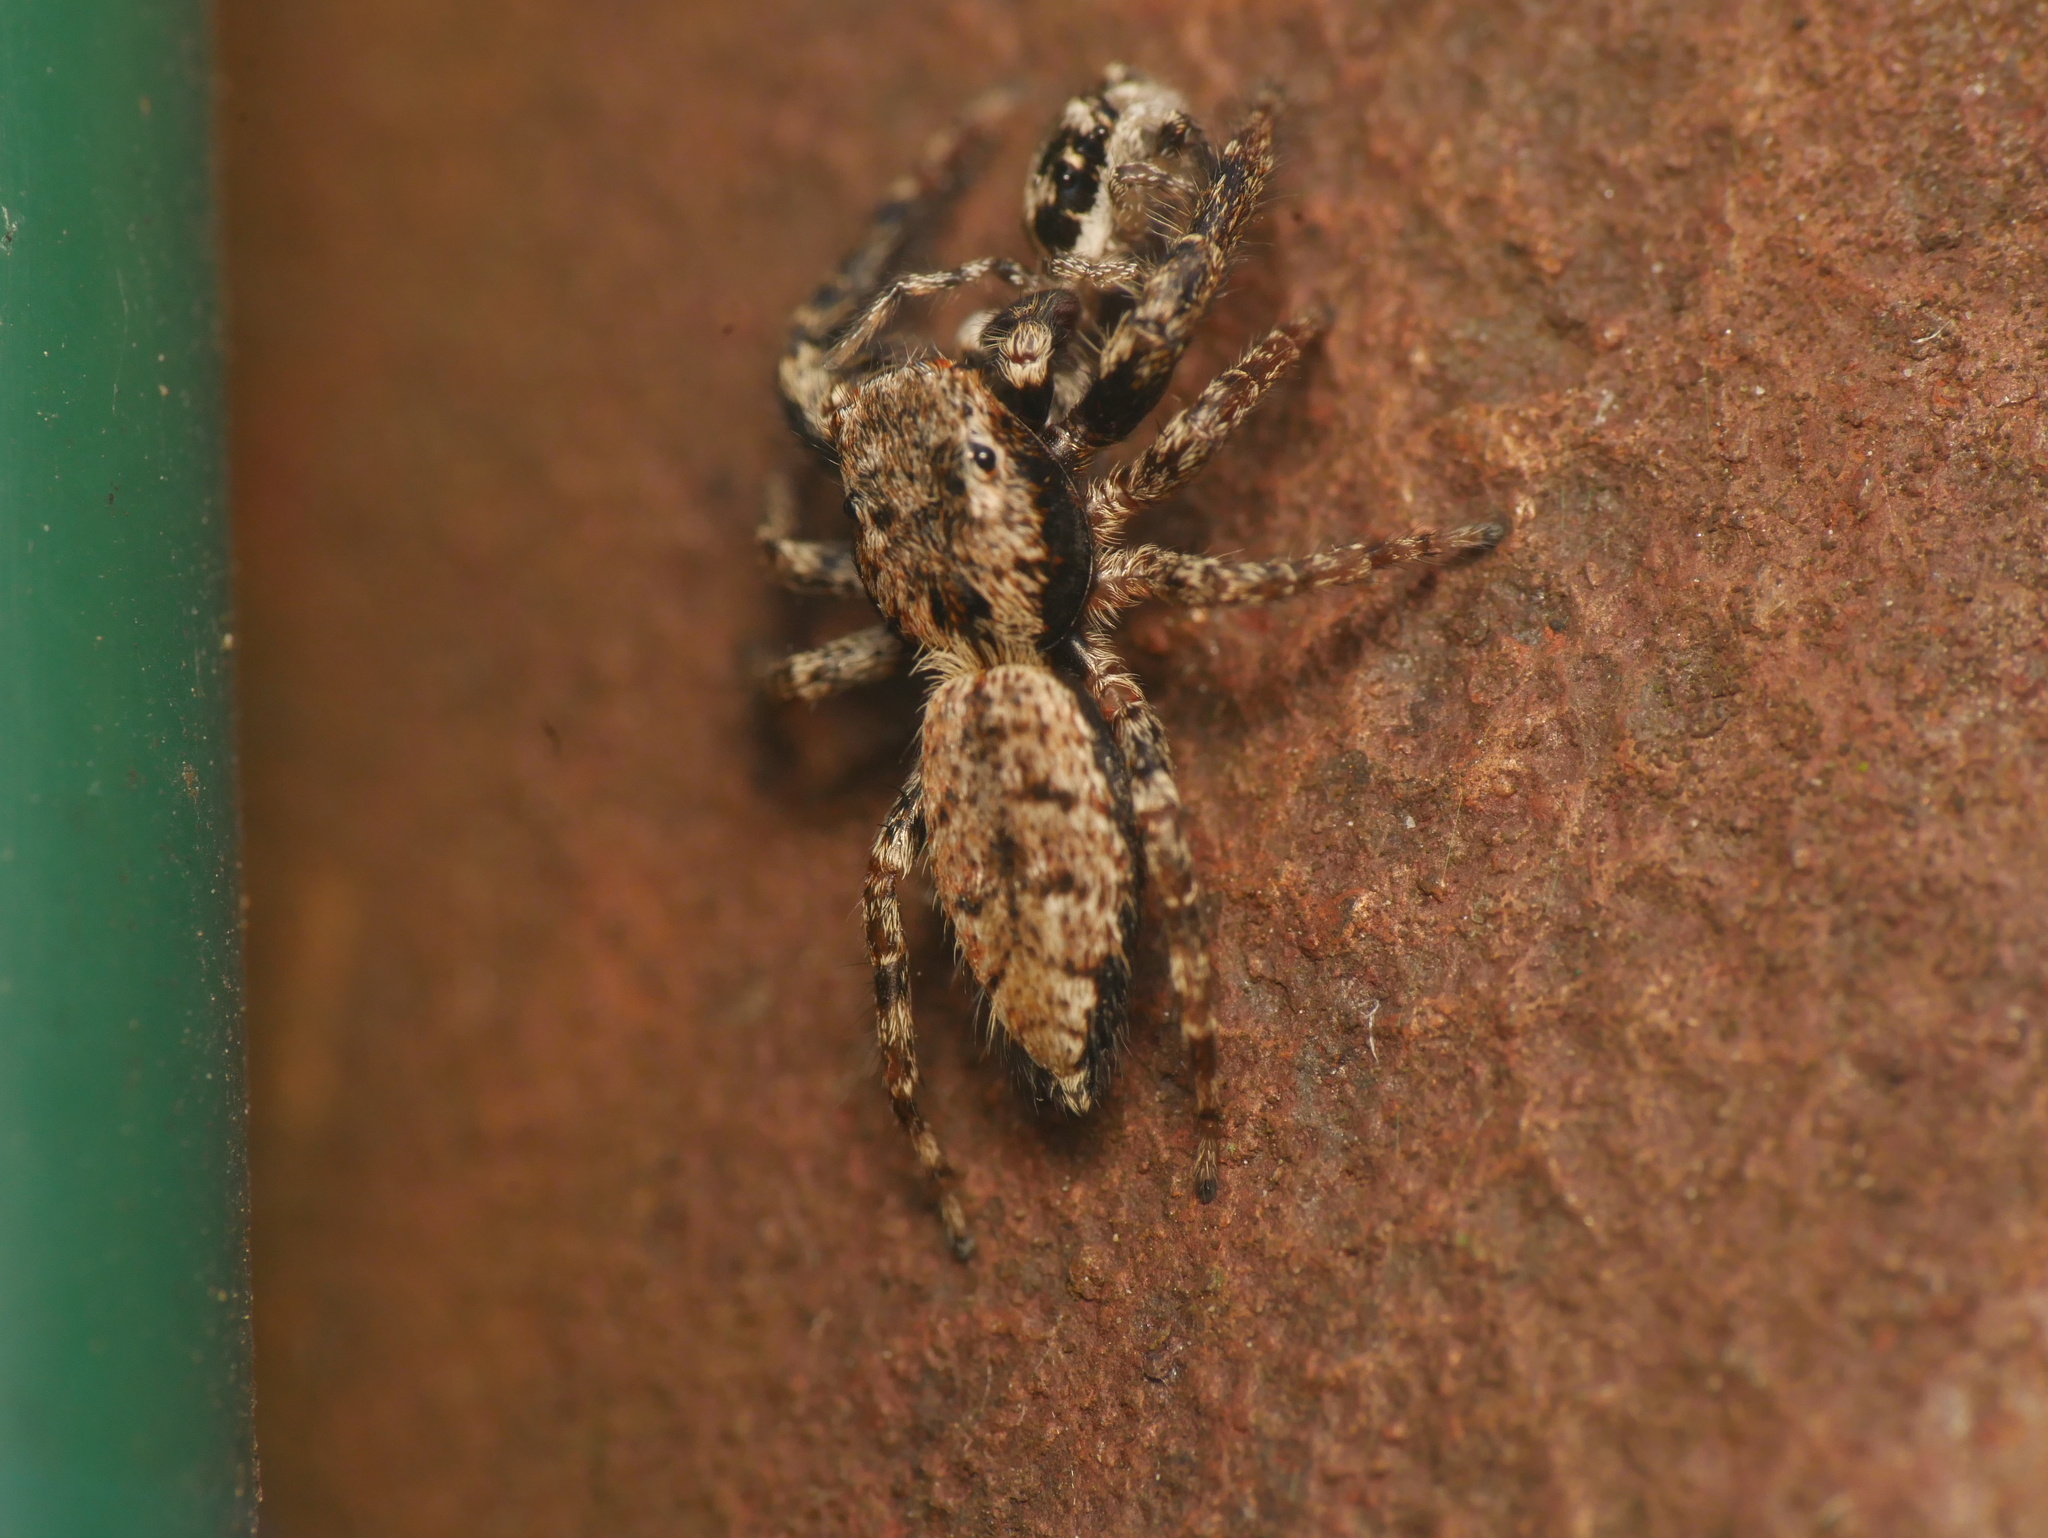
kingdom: Animalia
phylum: Arthropoda
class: Arachnida
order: Araneae
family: Salticidae
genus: Marpissa
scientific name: Marpissa muscosa
